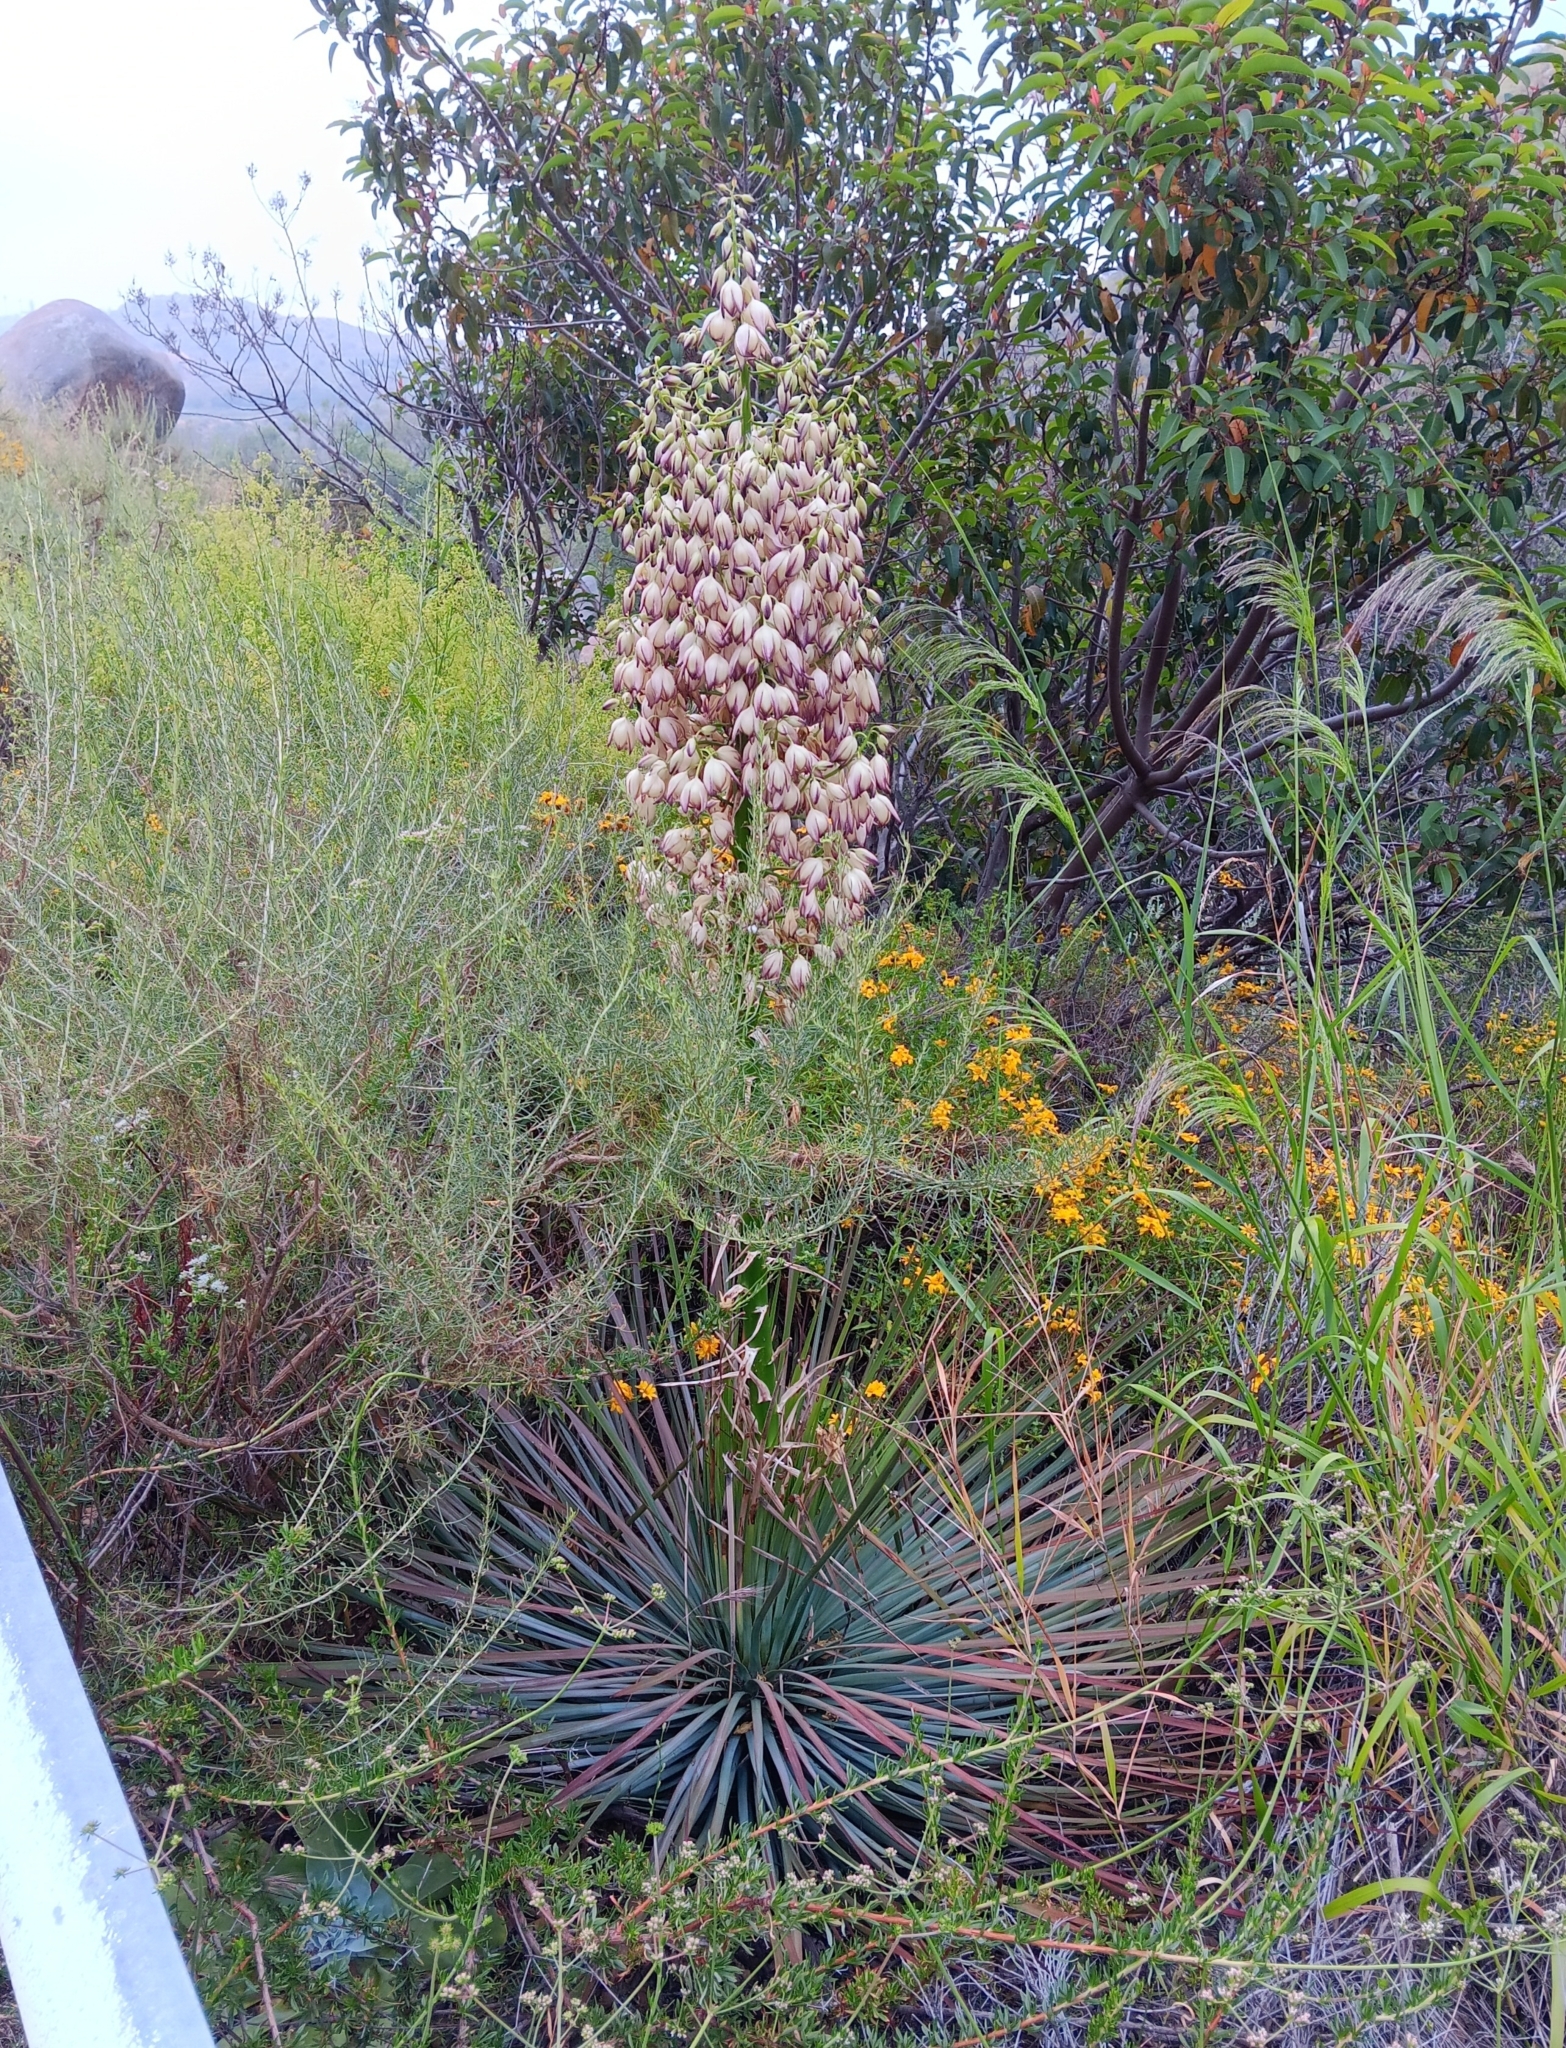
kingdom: Plantae
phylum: Tracheophyta
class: Liliopsida
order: Asparagales
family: Asparagaceae
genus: Hesperoyucca
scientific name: Hesperoyucca whipplei
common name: Our lord's-candle
